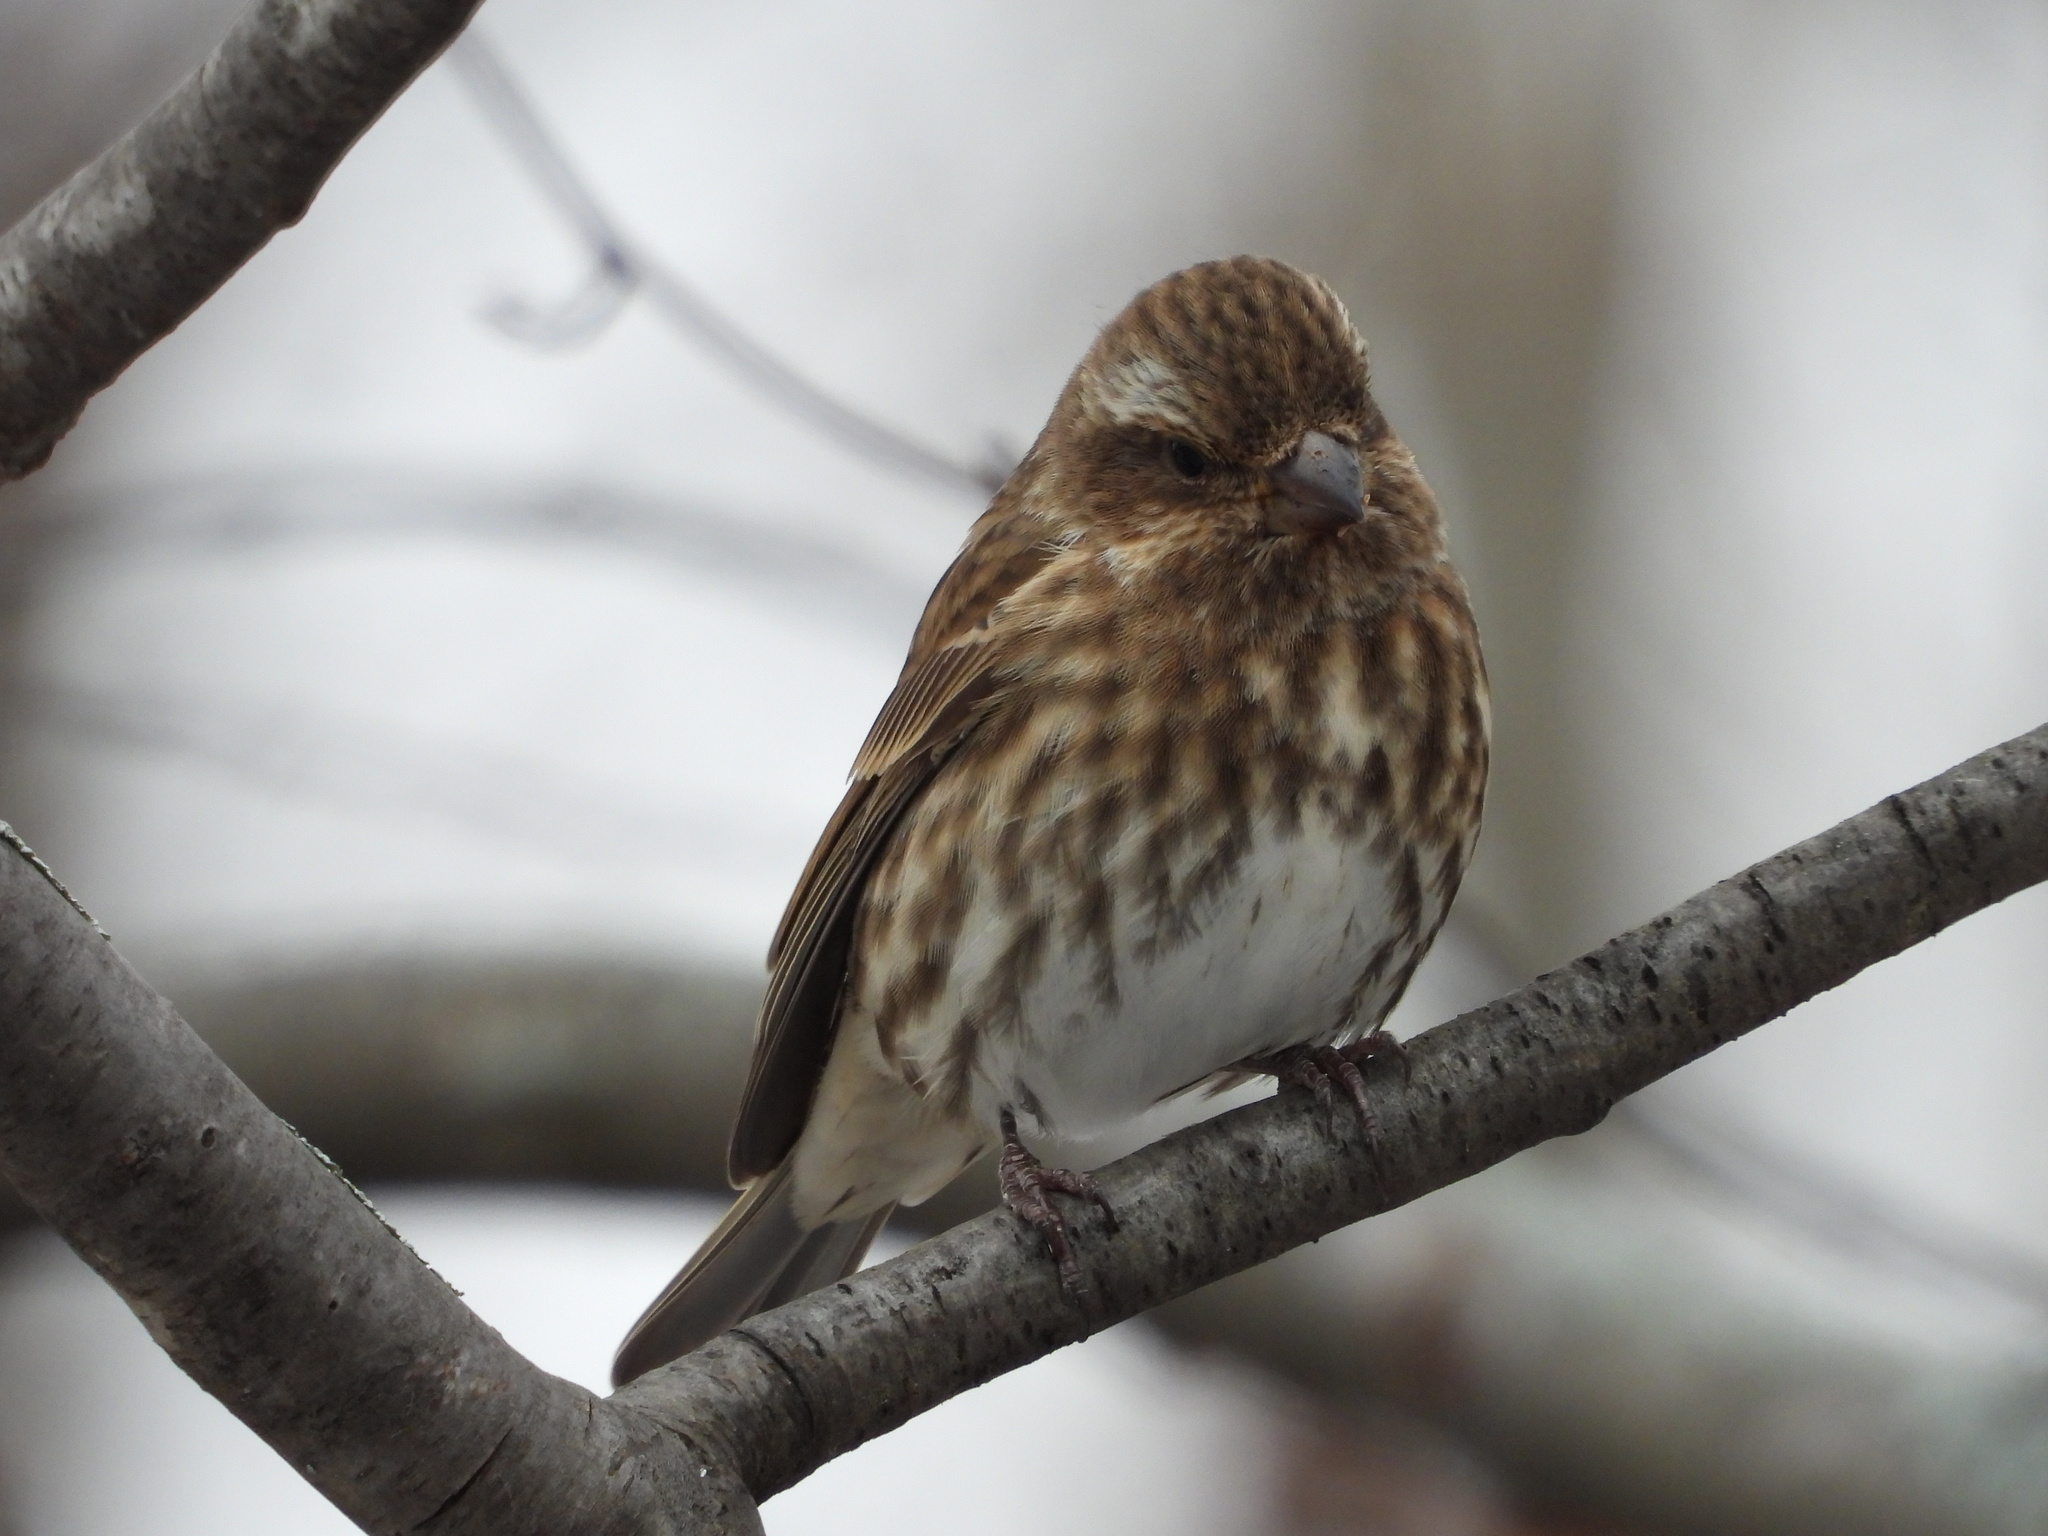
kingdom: Animalia
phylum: Chordata
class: Aves
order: Passeriformes
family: Fringillidae
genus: Haemorhous
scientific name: Haemorhous purpureus
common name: Purple finch
